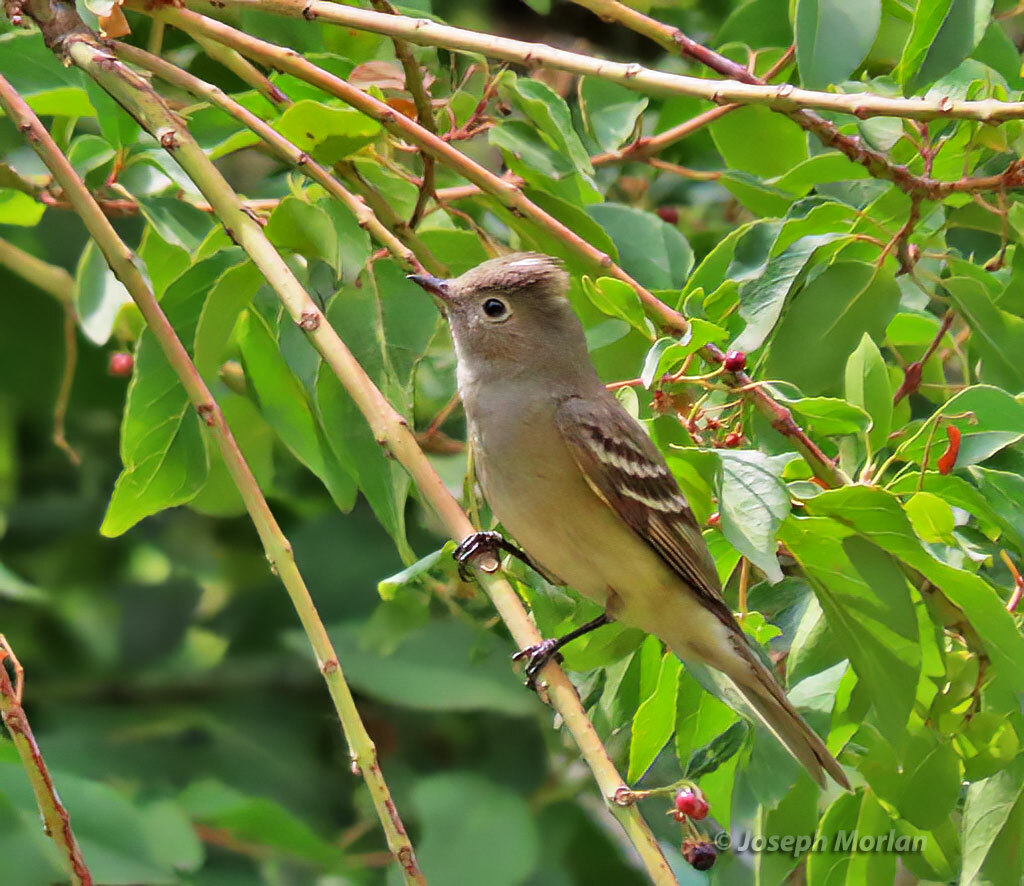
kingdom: Animalia
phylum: Chordata
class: Aves
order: Passeriformes
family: Tyrannidae
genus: Elaenia
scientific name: Elaenia albiceps
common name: White-crested elaenia
